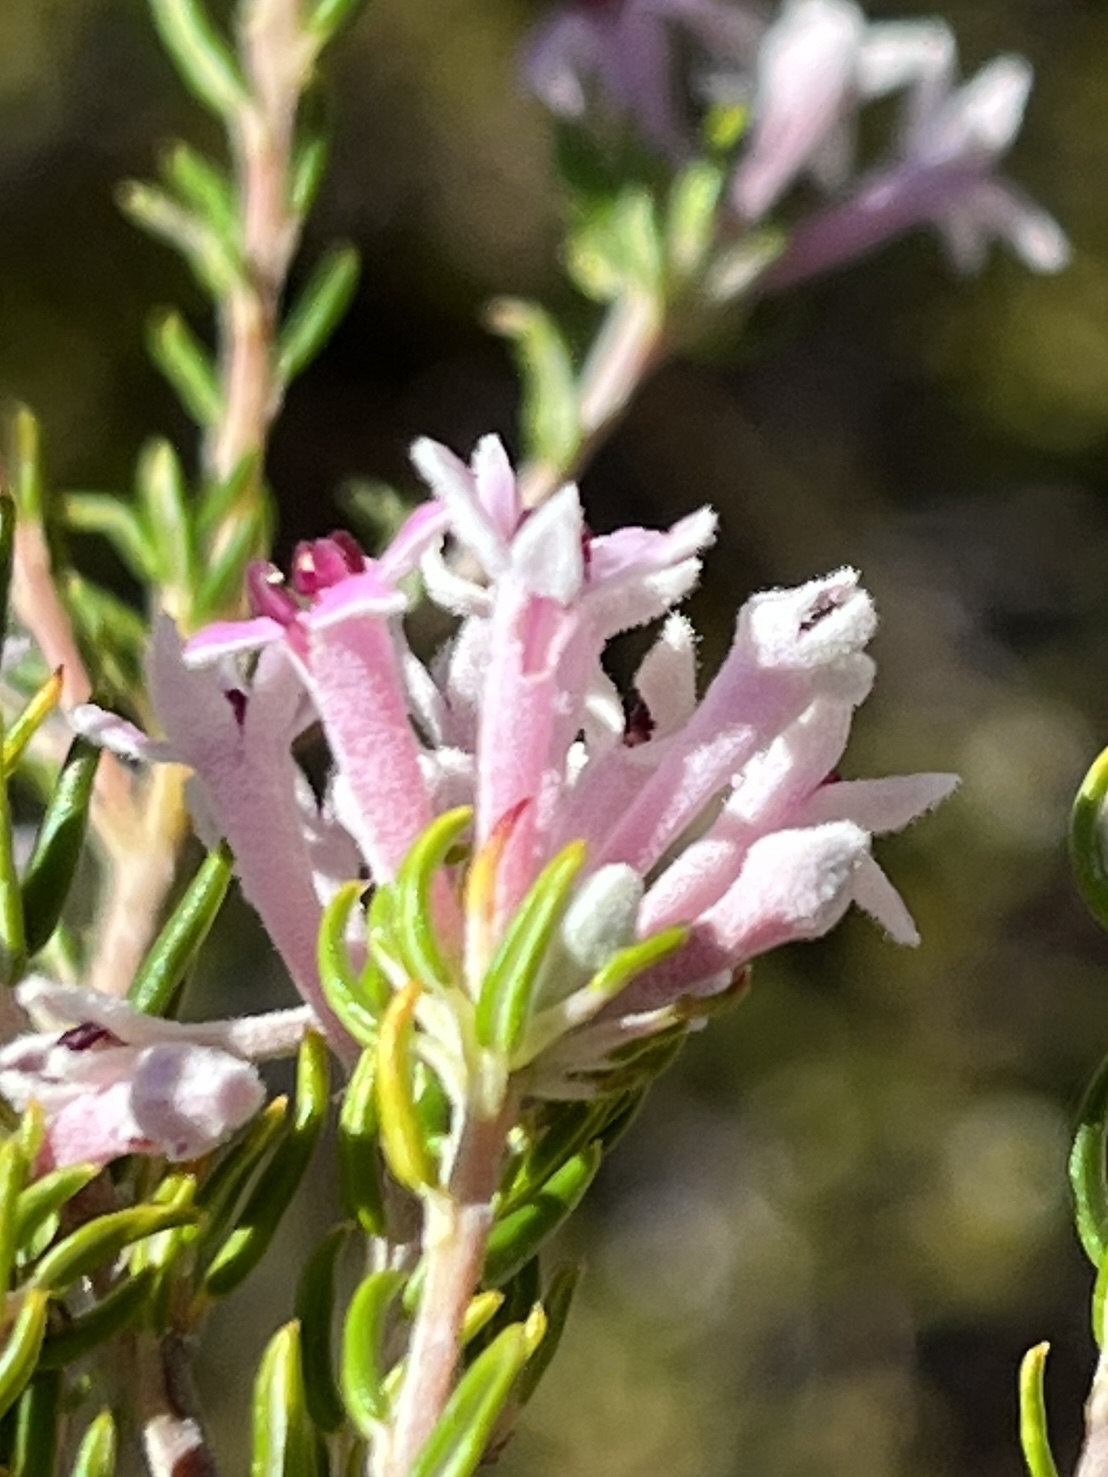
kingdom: Plantae
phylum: Tracheophyta
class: Magnoliopsida
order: Rosales
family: Rhamnaceae
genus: Phylica
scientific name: Phylica fourcadei
